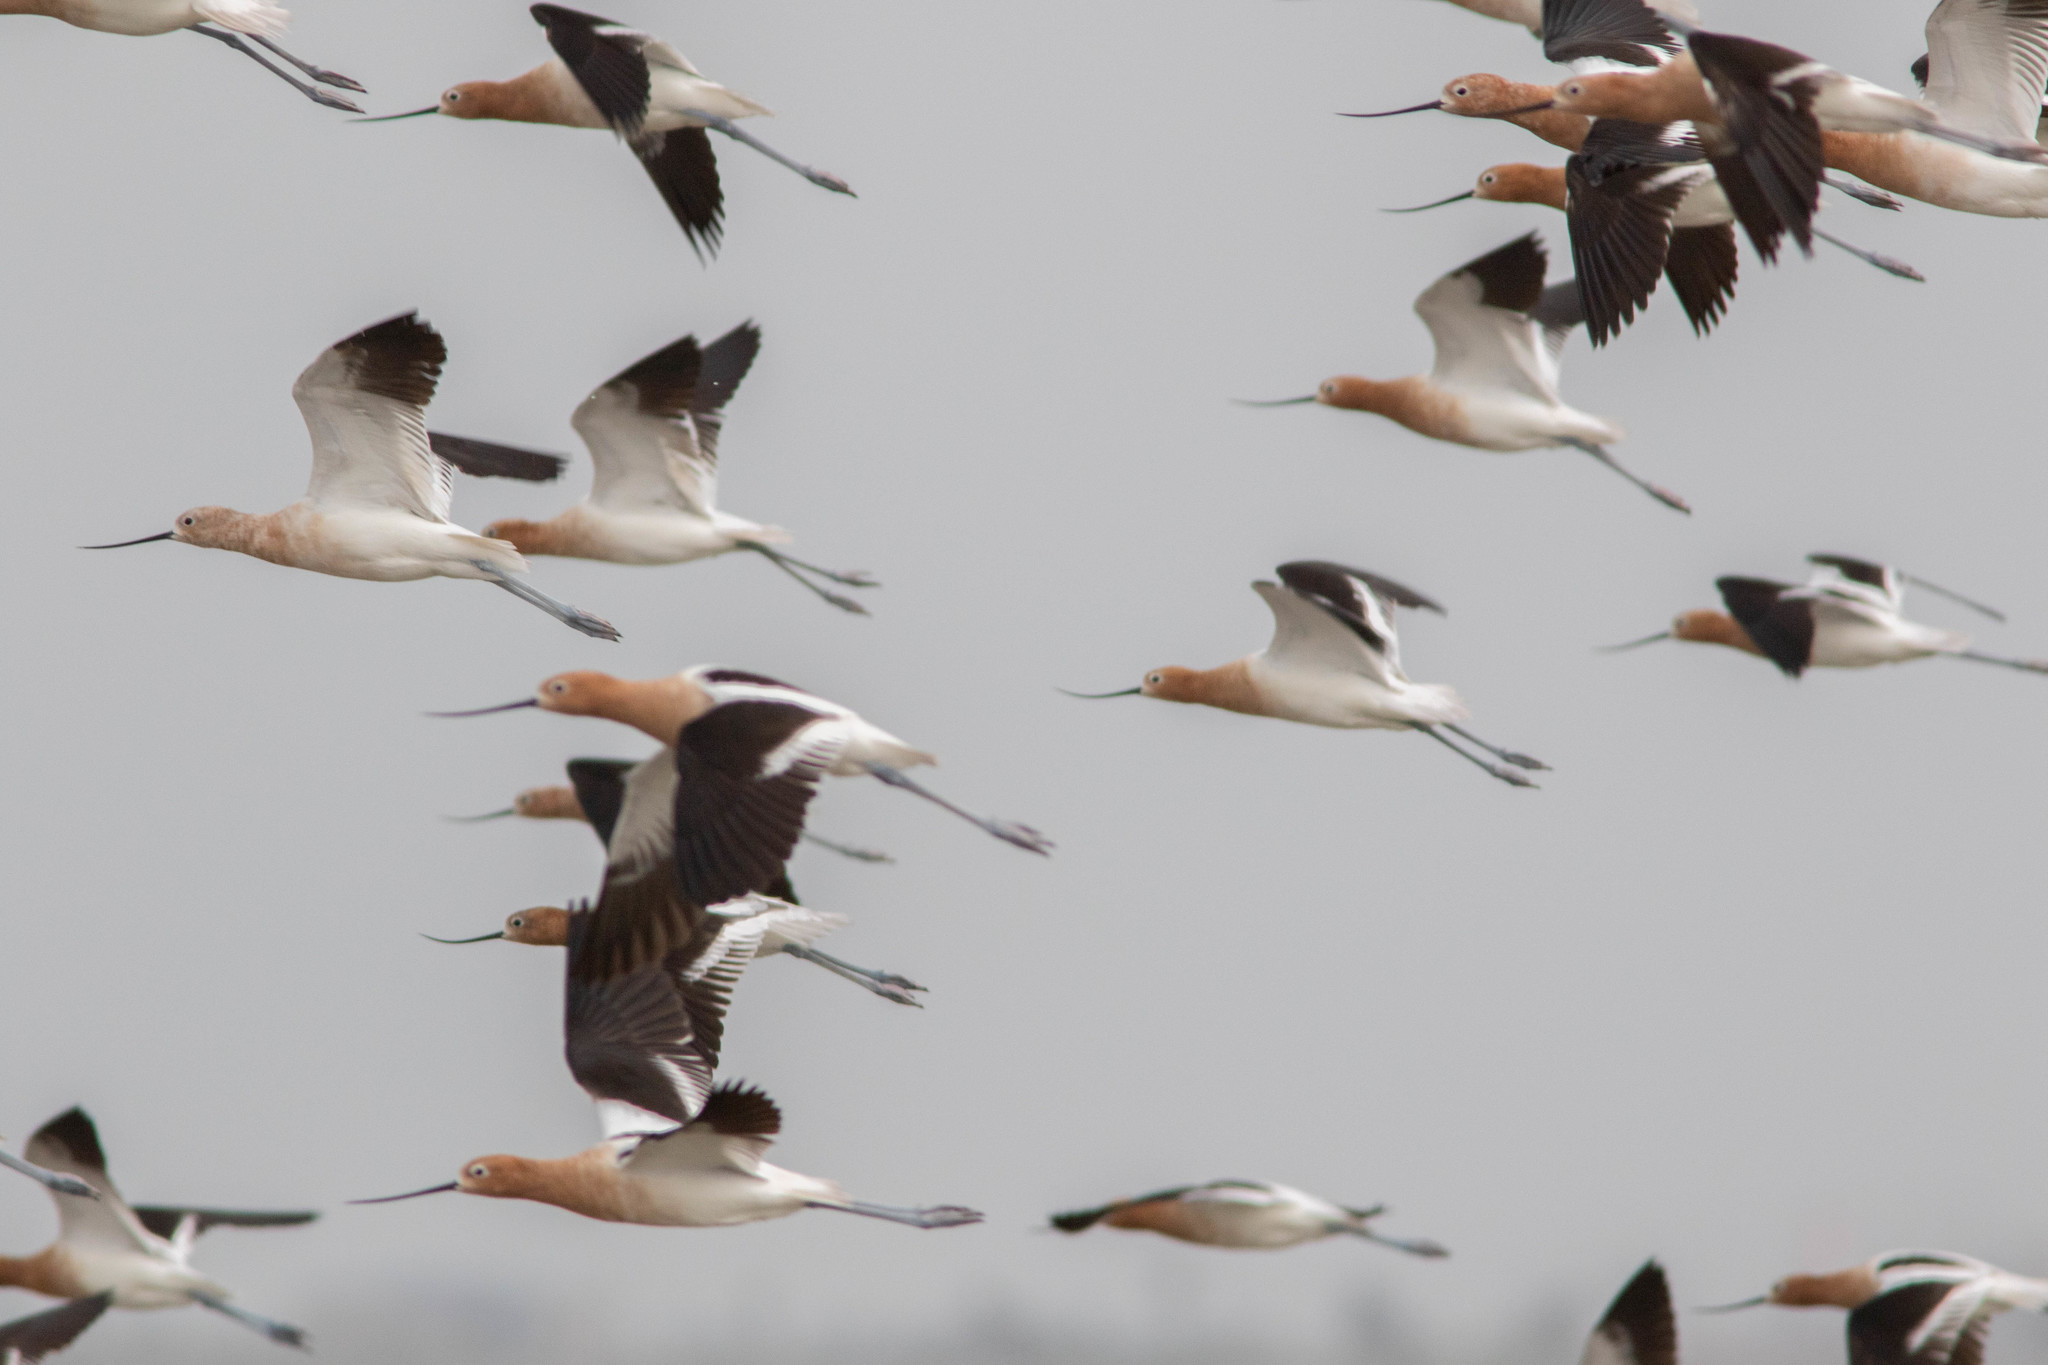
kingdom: Animalia
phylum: Chordata
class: Aves
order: Charadriiformes
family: Recurvirostridae
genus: Recurvirostra
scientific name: Recurvirostra americana
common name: American avocet
